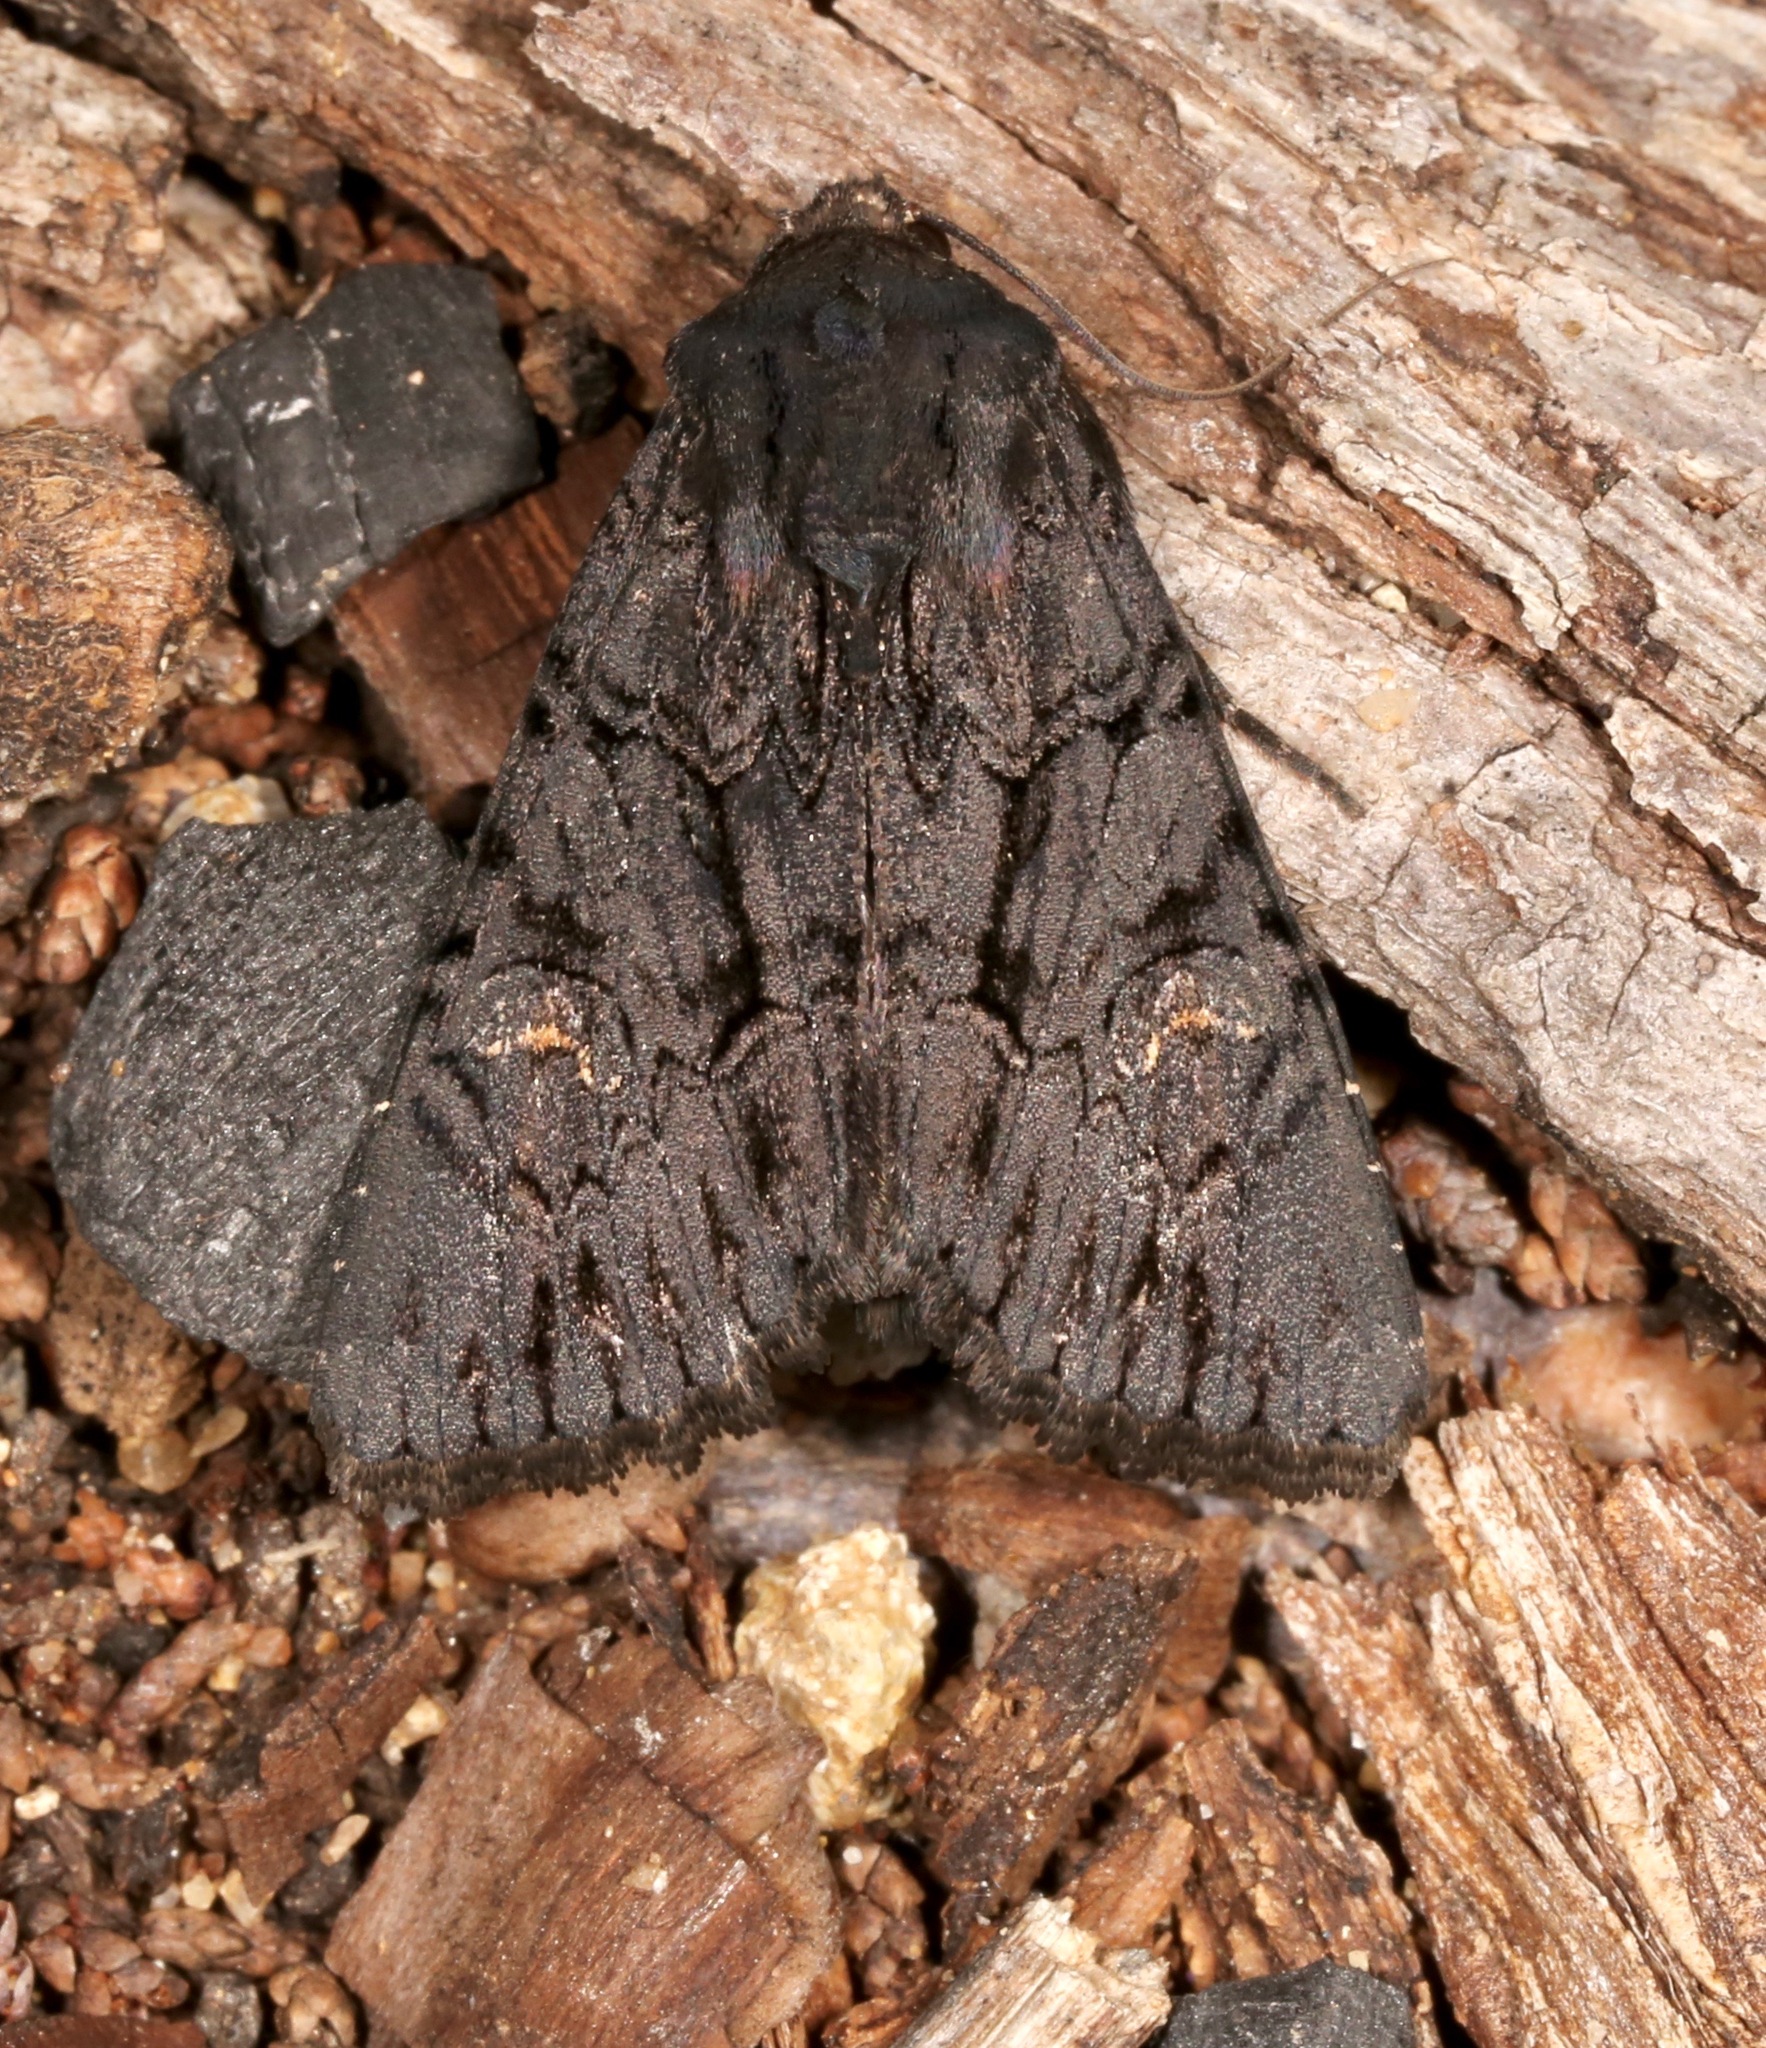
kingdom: Animalia
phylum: Arthropoda
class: Insecta
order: Lepidoptera
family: Noctuidae
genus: Apamea
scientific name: Apamea burgessi
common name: Burgess' apamea moth
